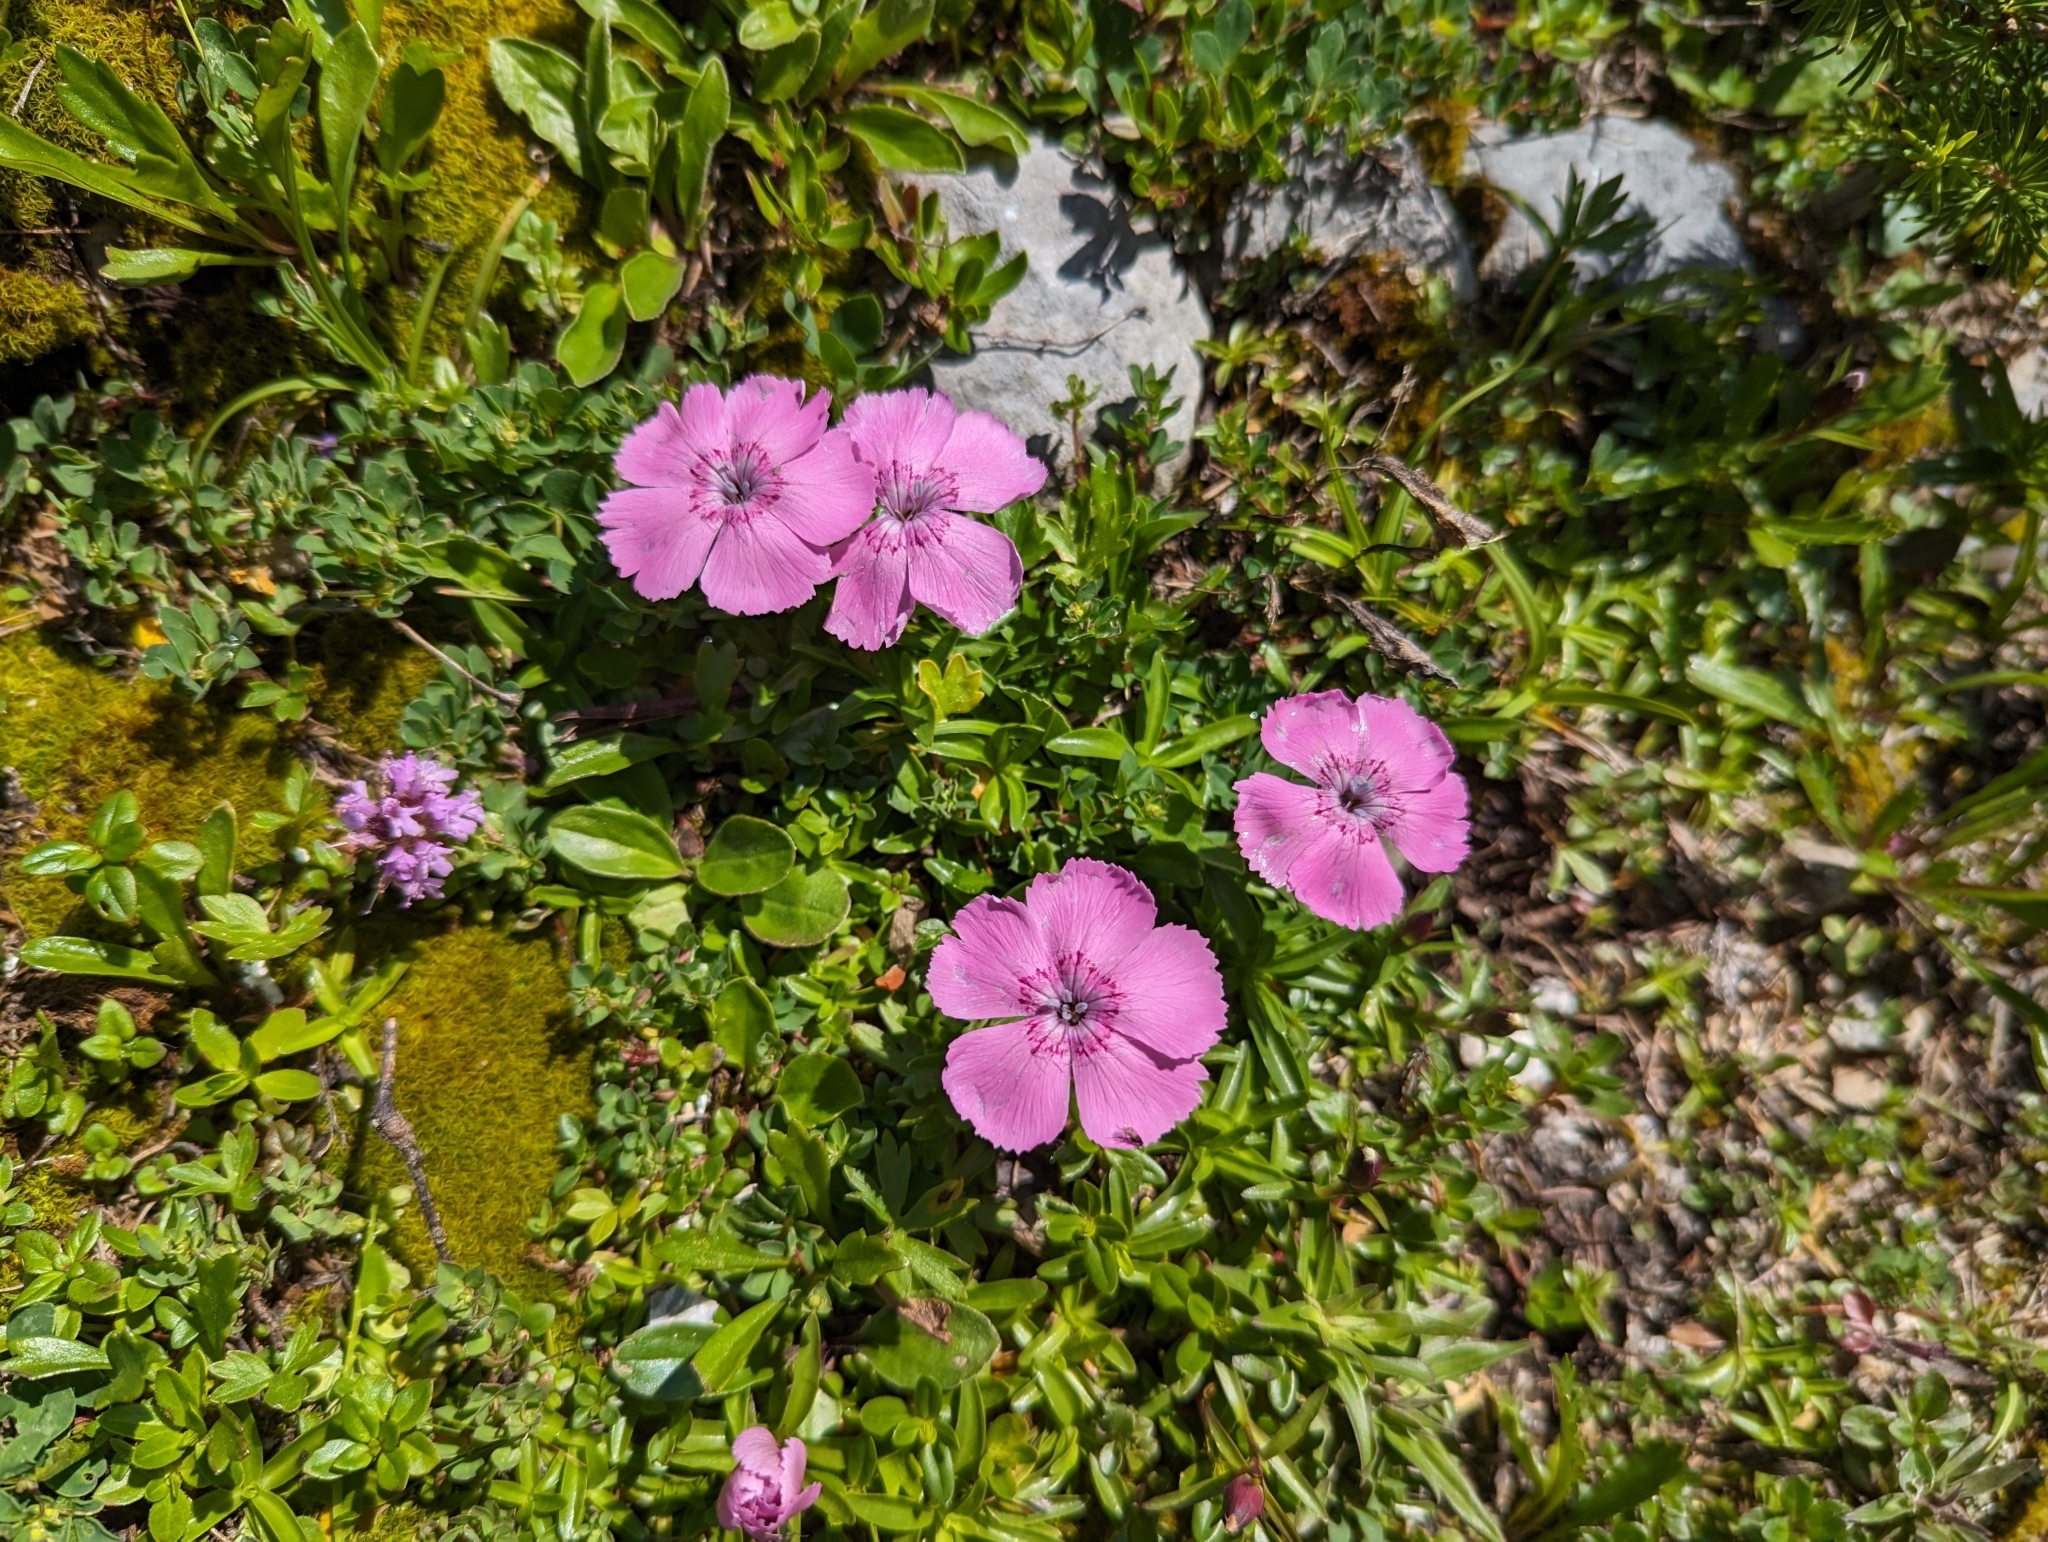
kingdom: Plantae
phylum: Tracheophyta
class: Magnoliopsida
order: Caryophyllales
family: Caryophyllaceae
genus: Dianthus
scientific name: Dianthus alpinus
